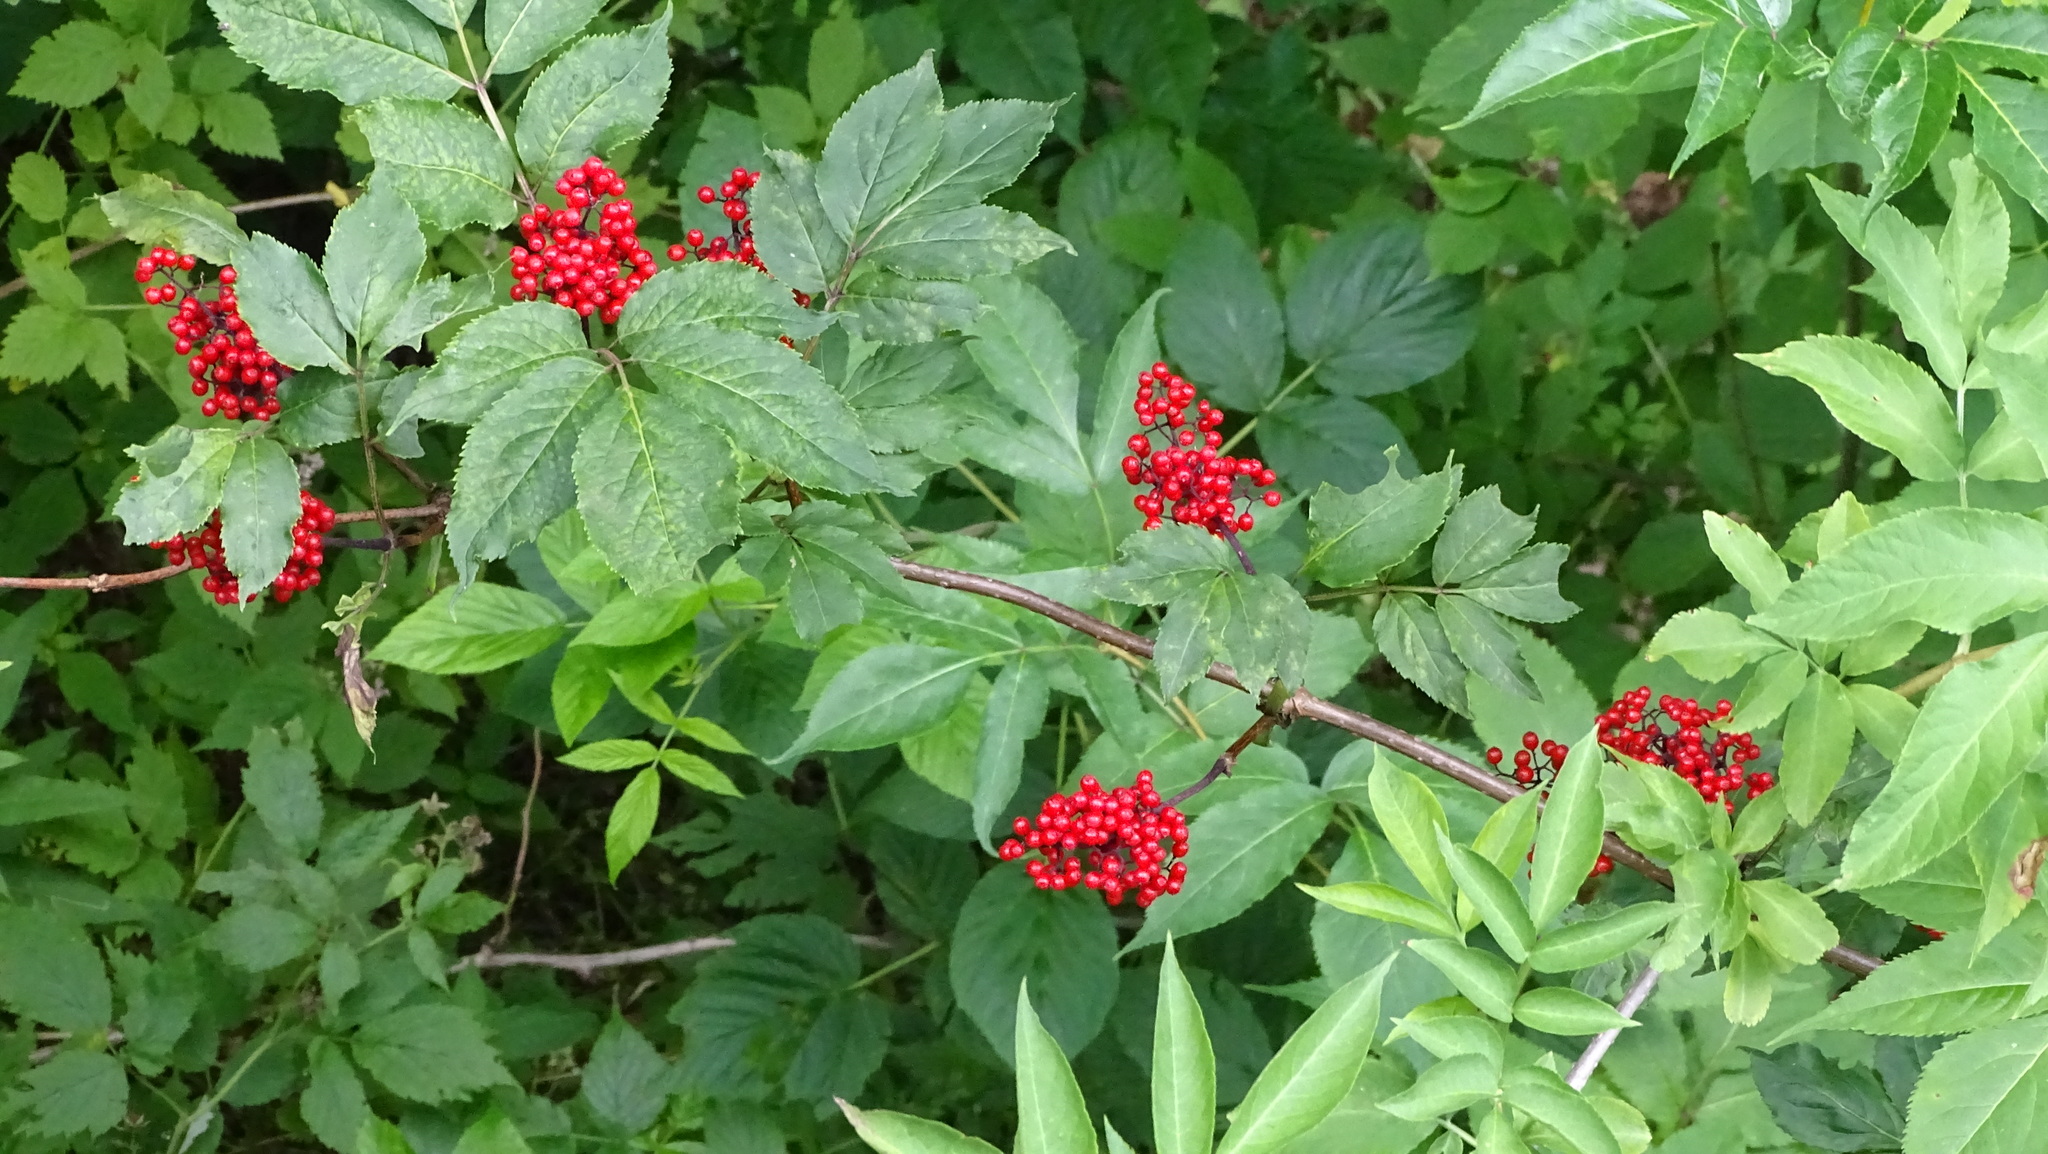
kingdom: Plantae
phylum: Tracheophyta
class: Magnoliopsida
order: Dipsacales
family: Viburnaceae
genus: Sambucus
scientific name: Sambucus racemosa
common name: Red-berried elder
